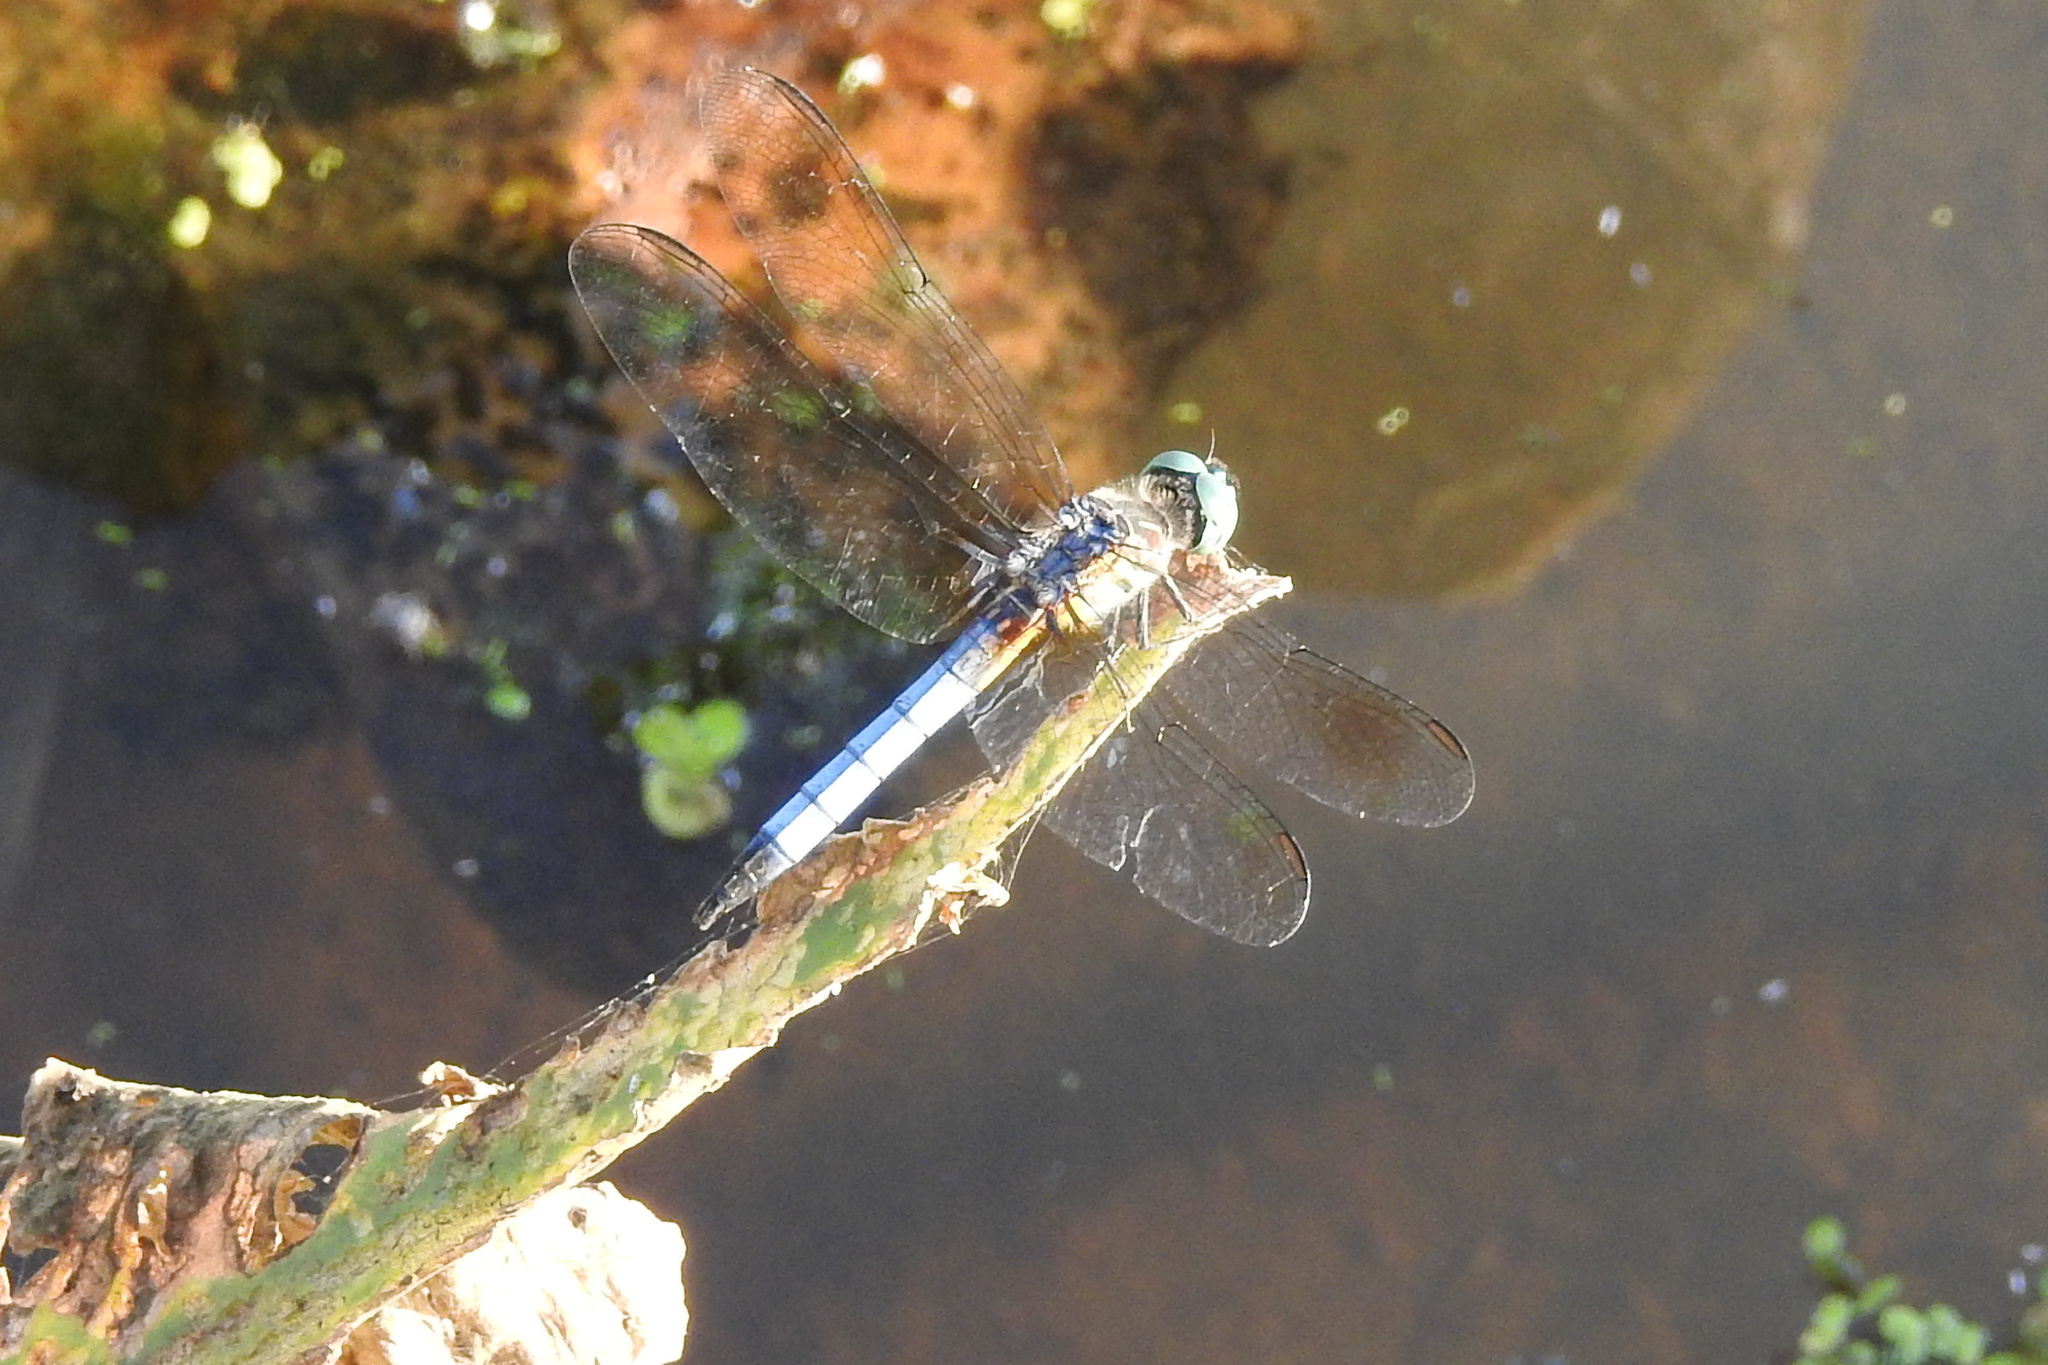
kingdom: Animalia
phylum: Arthropoda
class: Insecta
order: Odonata
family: Libellulidae
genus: Pachydiplax
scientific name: Pachydiplax longipennis
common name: Blue dasher
